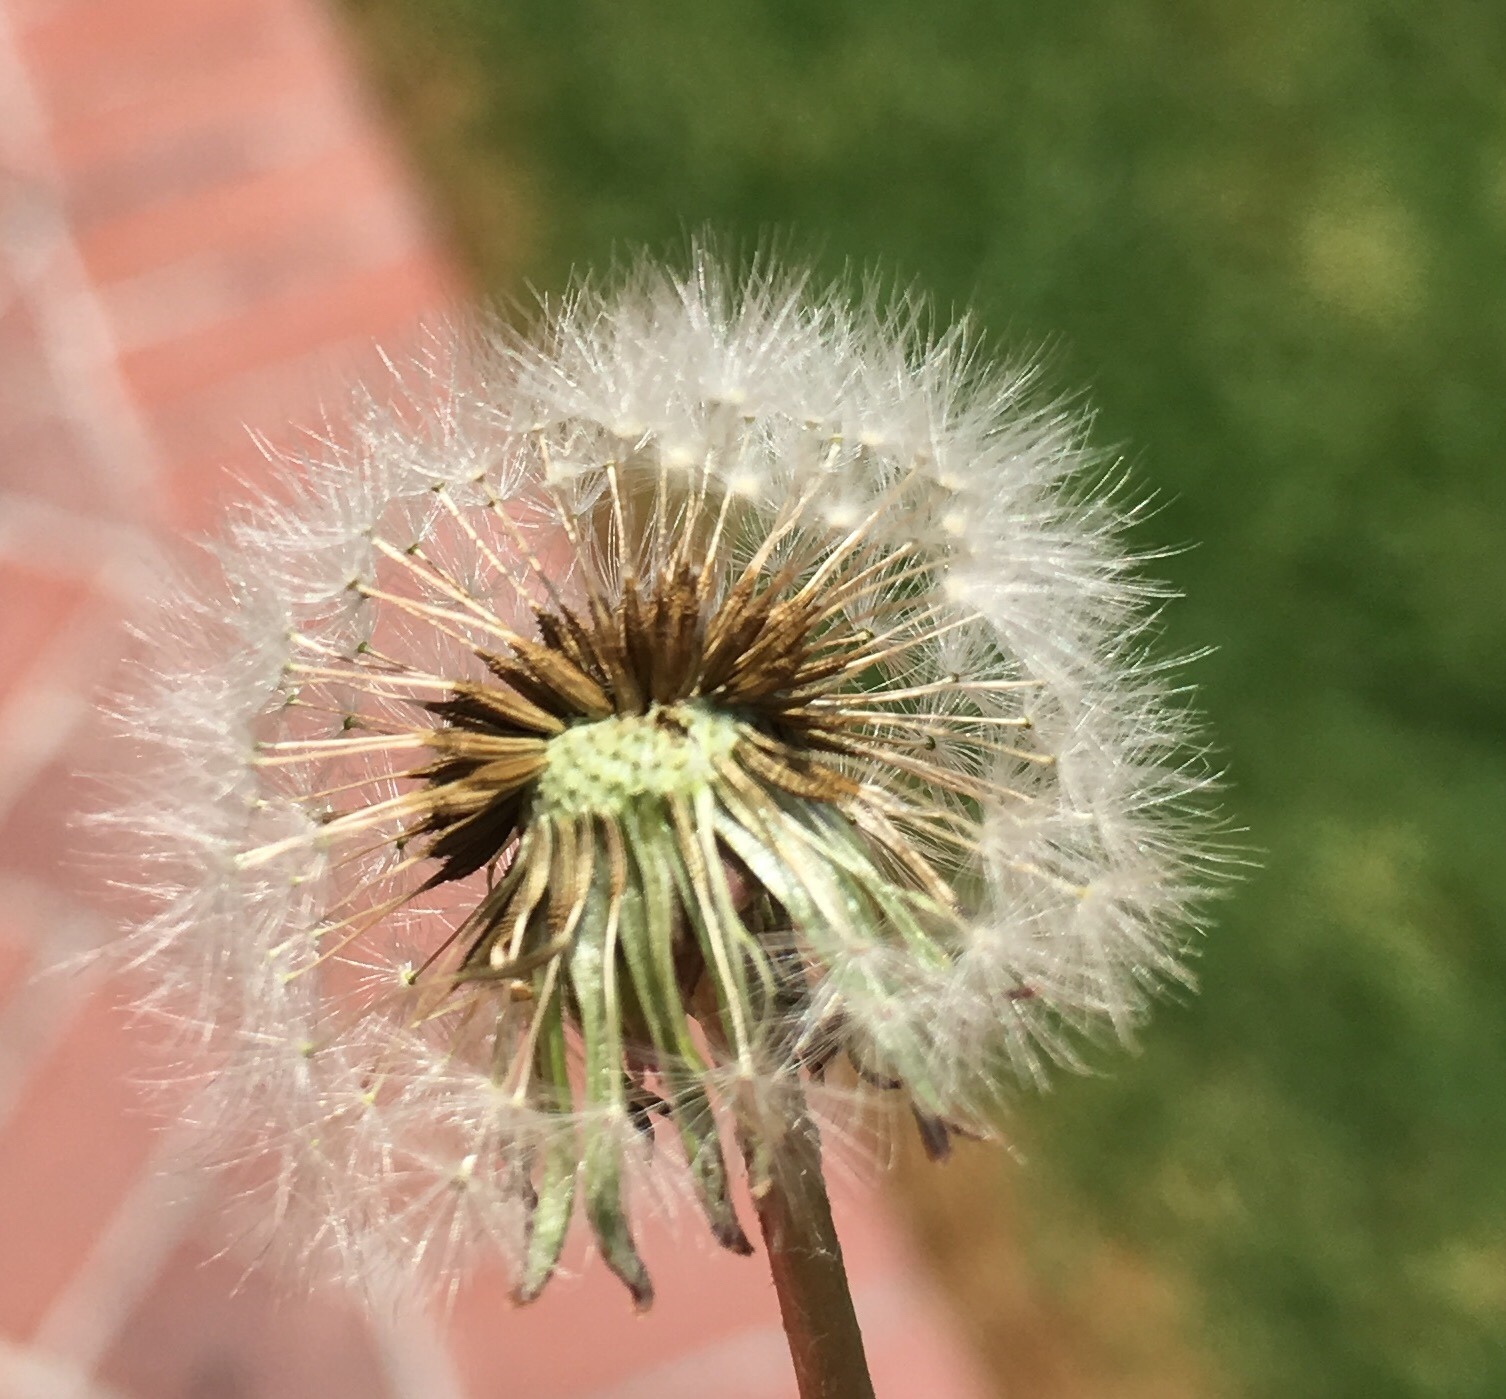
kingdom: Plantae
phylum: Tracheophyta
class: Magnoliopsida
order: Asterales
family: Asteraceae
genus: Taraxacum
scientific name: Taraxacum officinale
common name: Common dandelion
